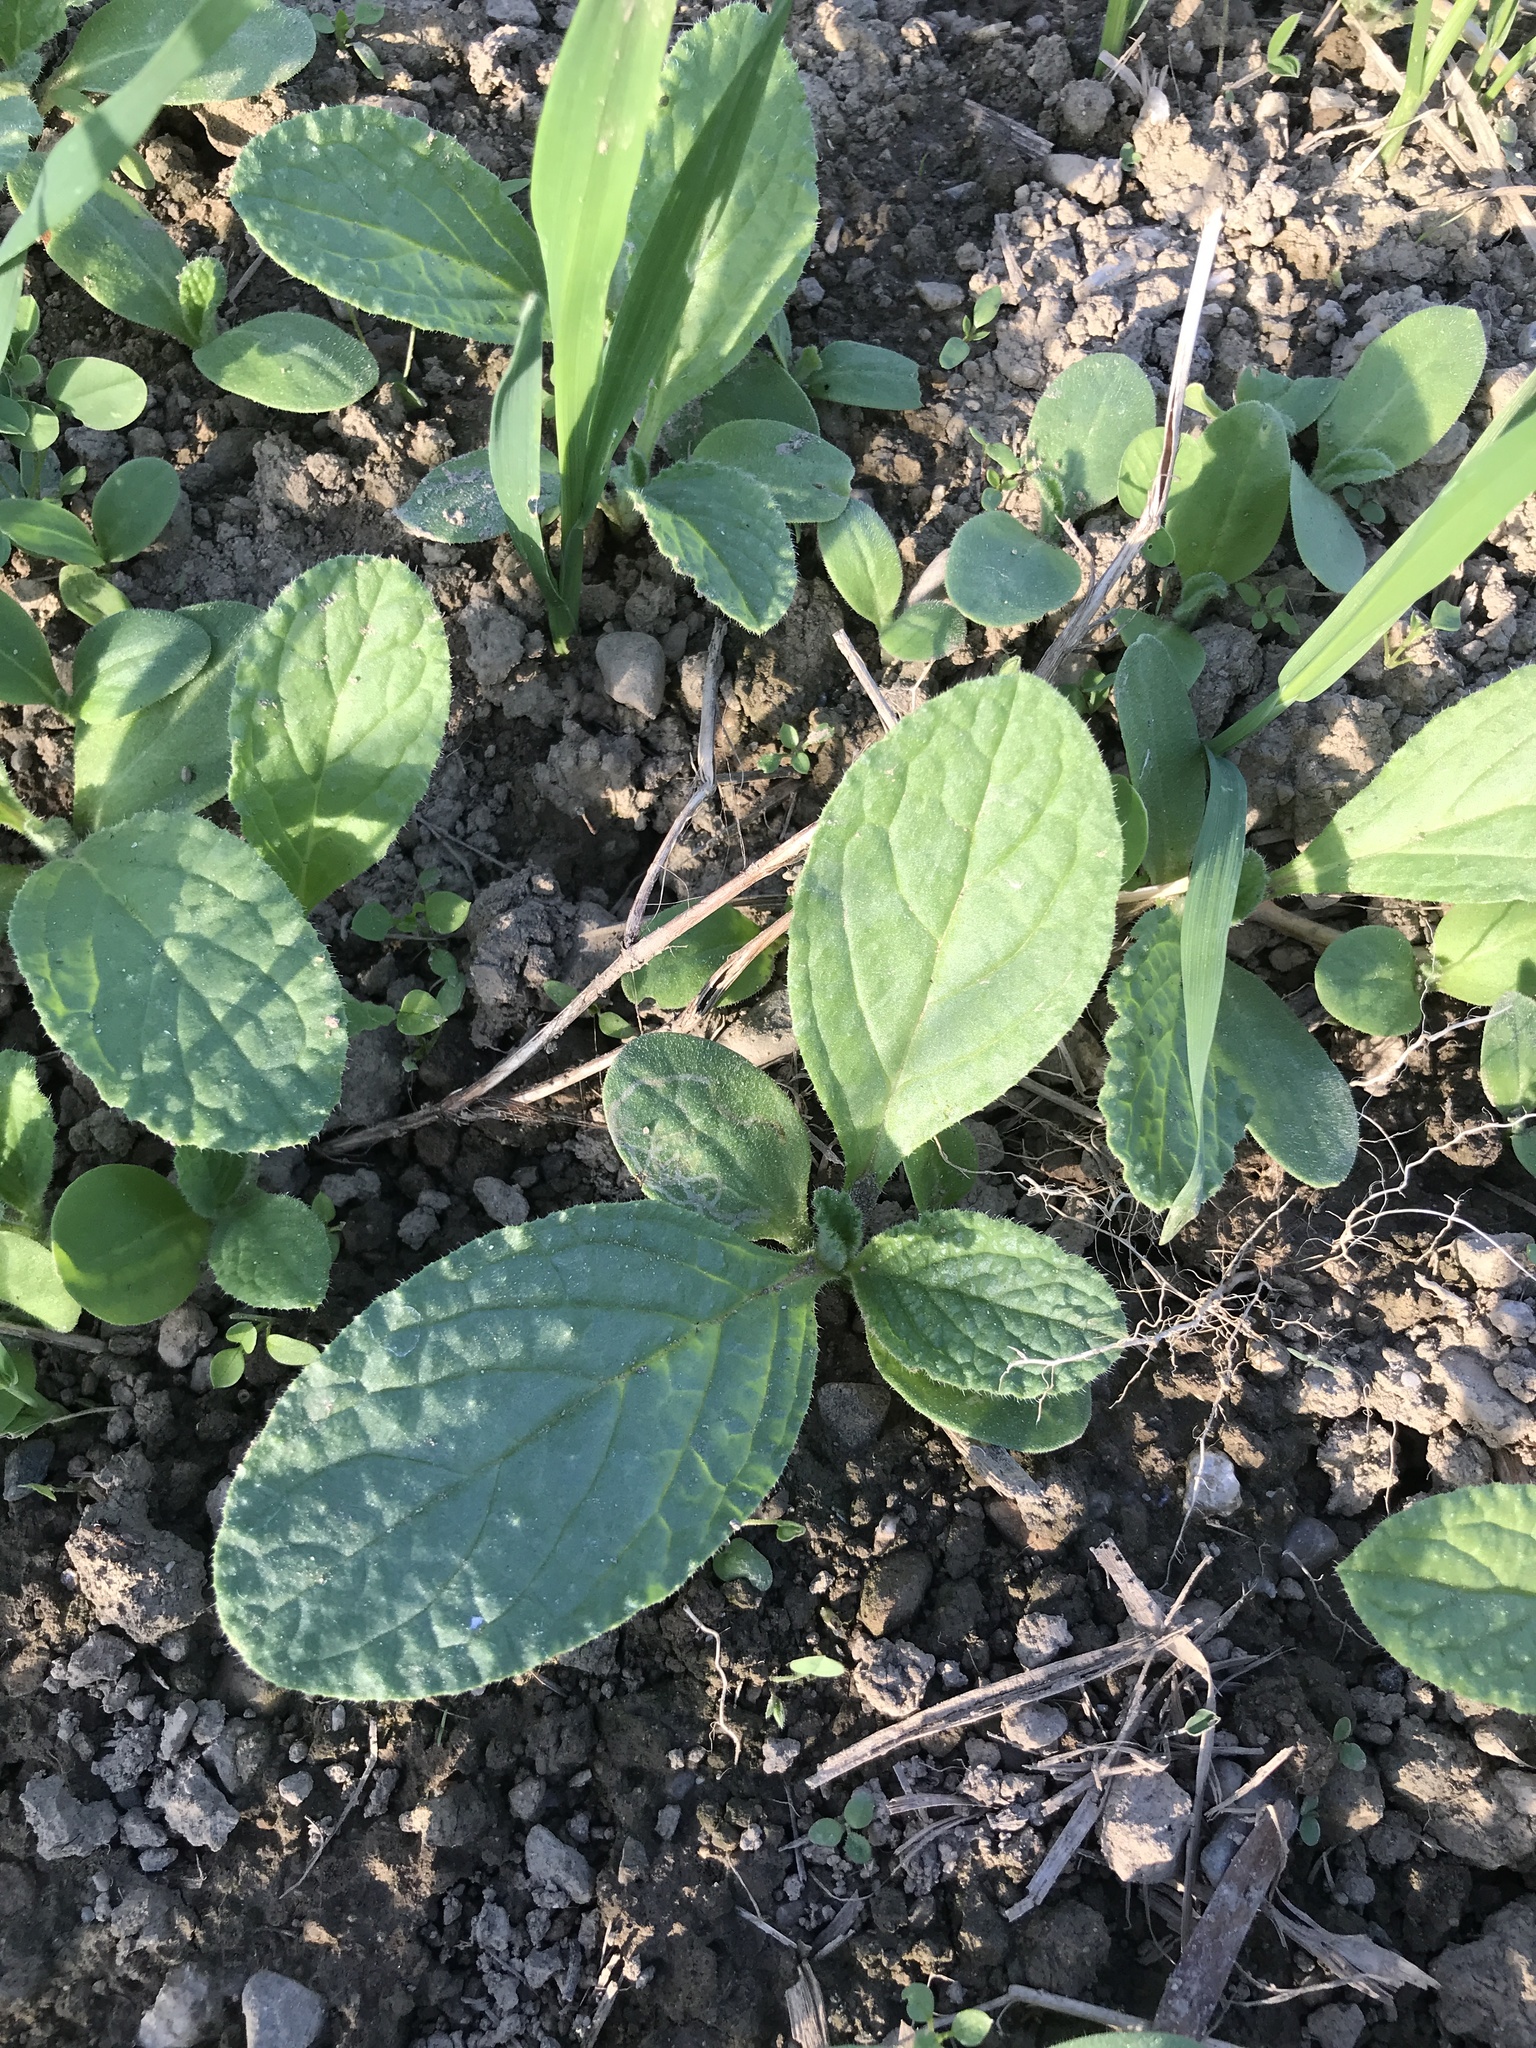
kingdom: Plantae
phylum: Tracheophyta
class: Magnoliopsida
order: Boraginales
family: Boraginaceae
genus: Borago
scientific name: Borago officinalis
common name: Borage
